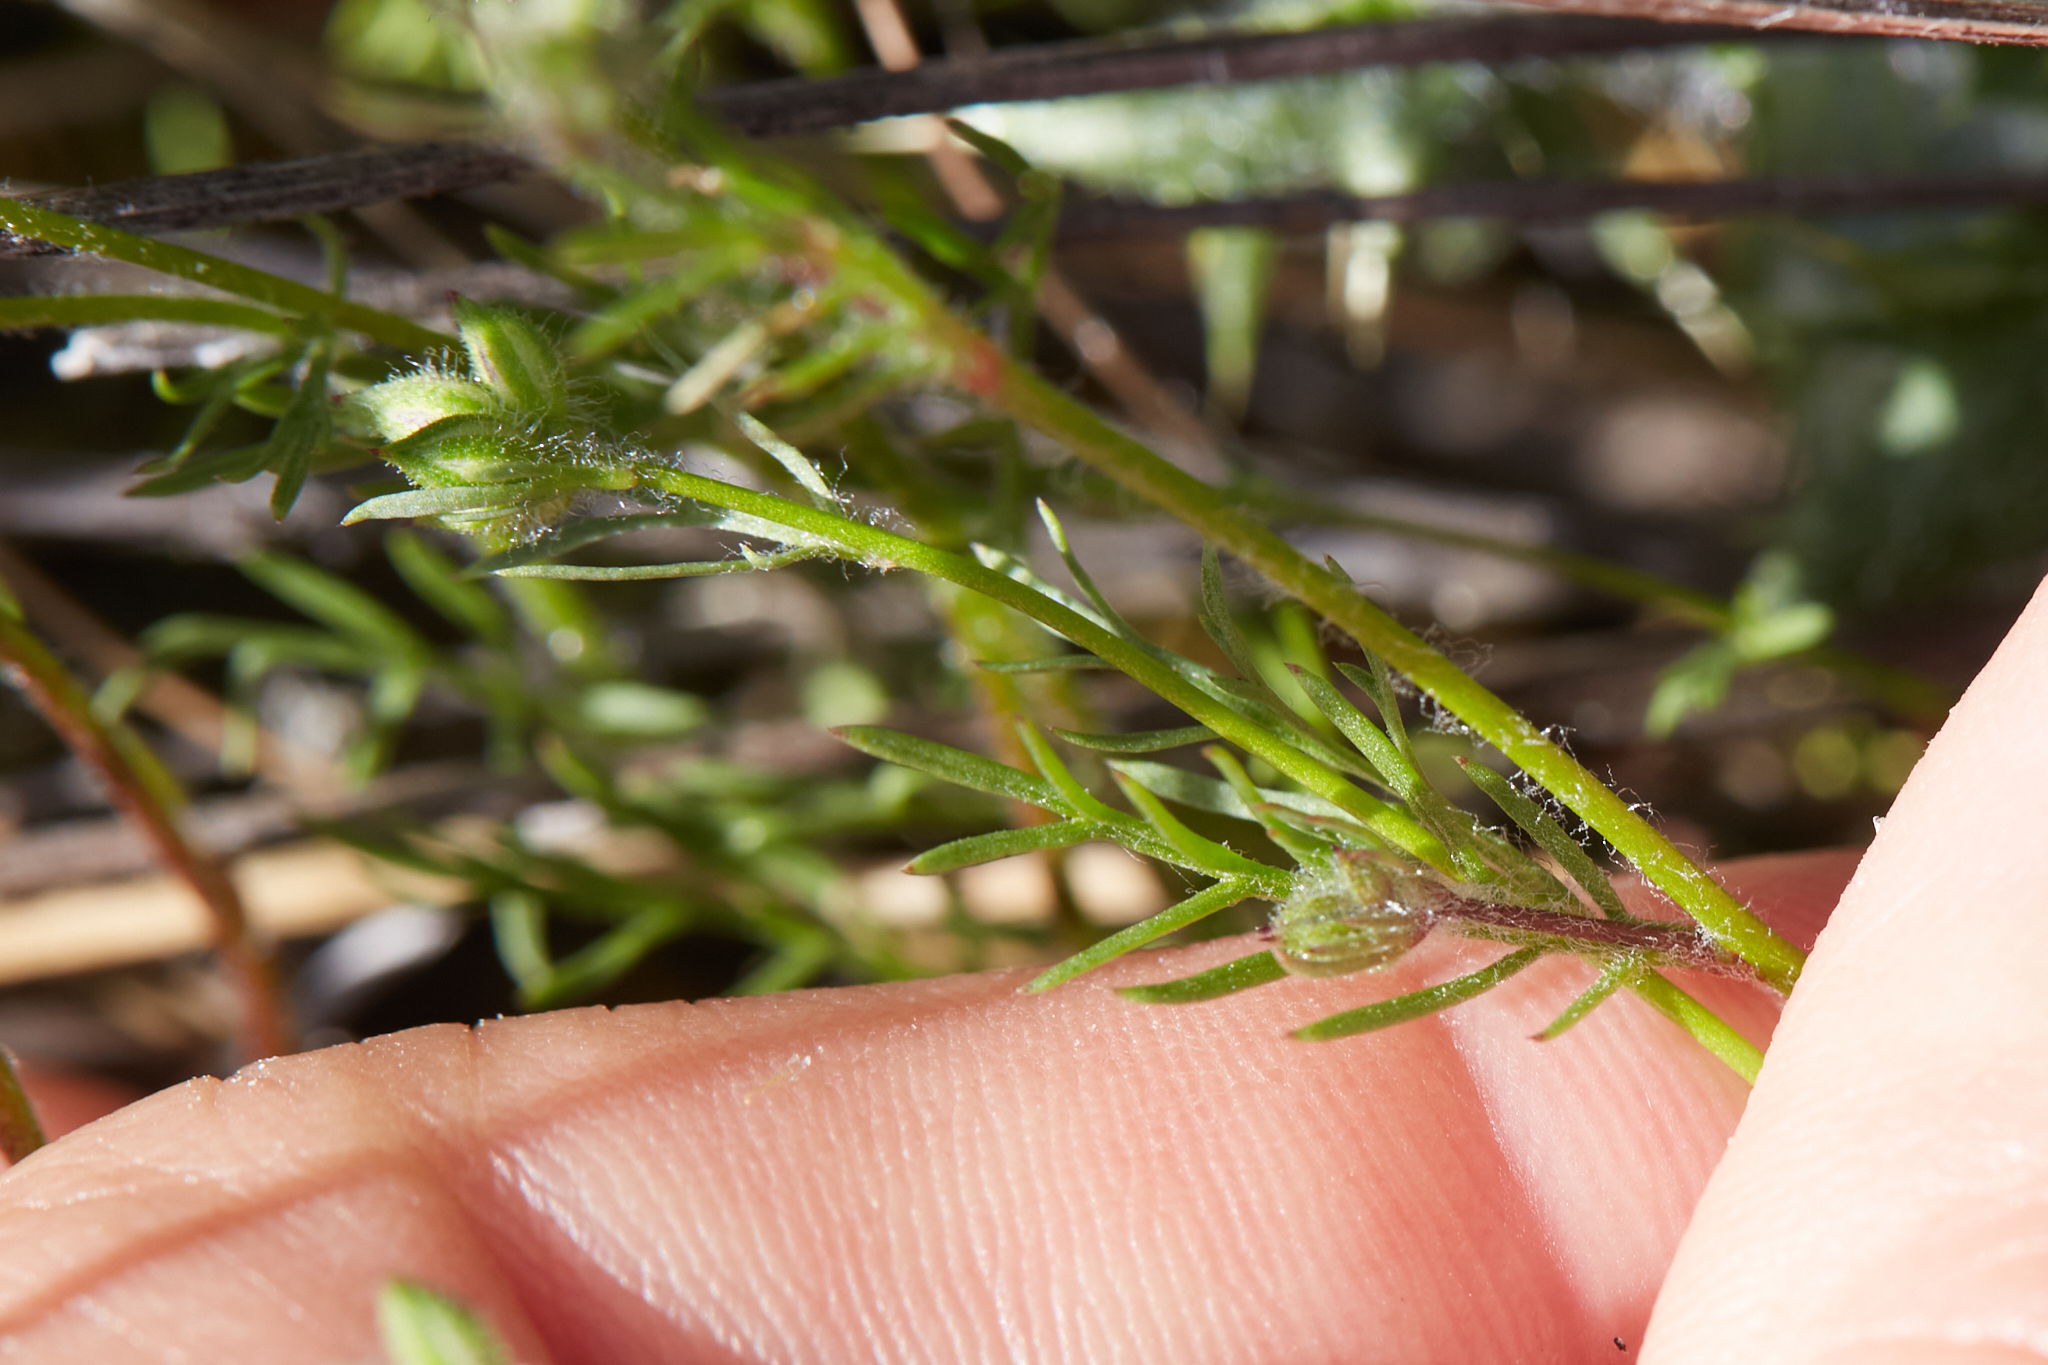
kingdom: Plantae
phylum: Tracheophyta
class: Magnoliopsida
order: Ericales
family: Polemoniaceae
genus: Gilia
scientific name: Gilia achilleifolia
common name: California gily-flower
